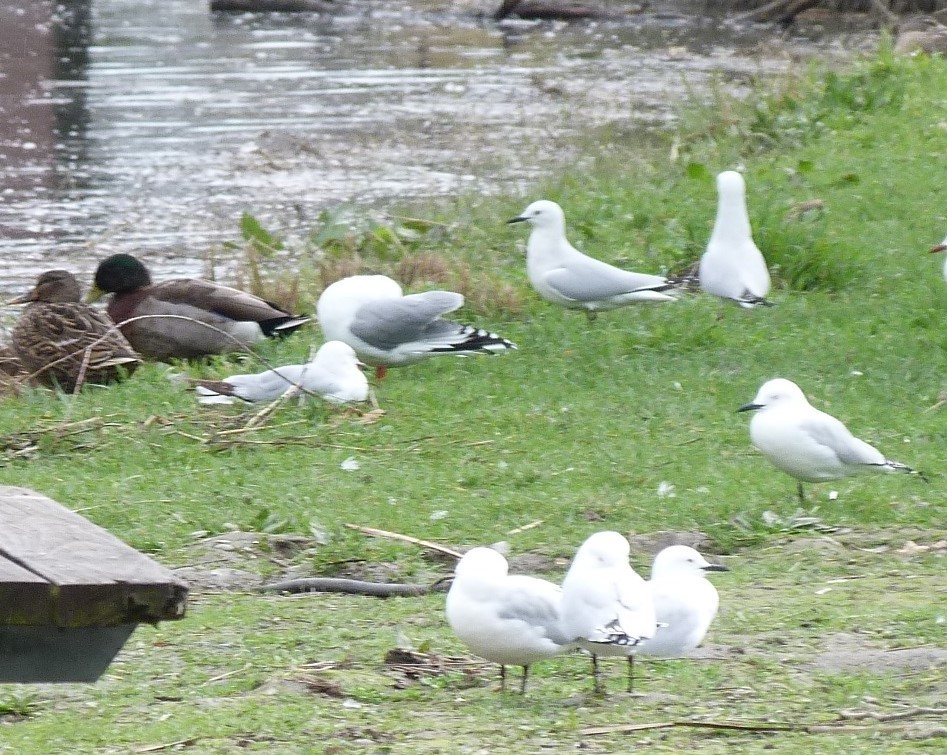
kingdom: Animalia
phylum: Chordata
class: Aves
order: Charadriiformes
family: Laridae
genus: Chroicocephalus
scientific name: Chroicocephalus bulleri
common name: Black-billed gull
